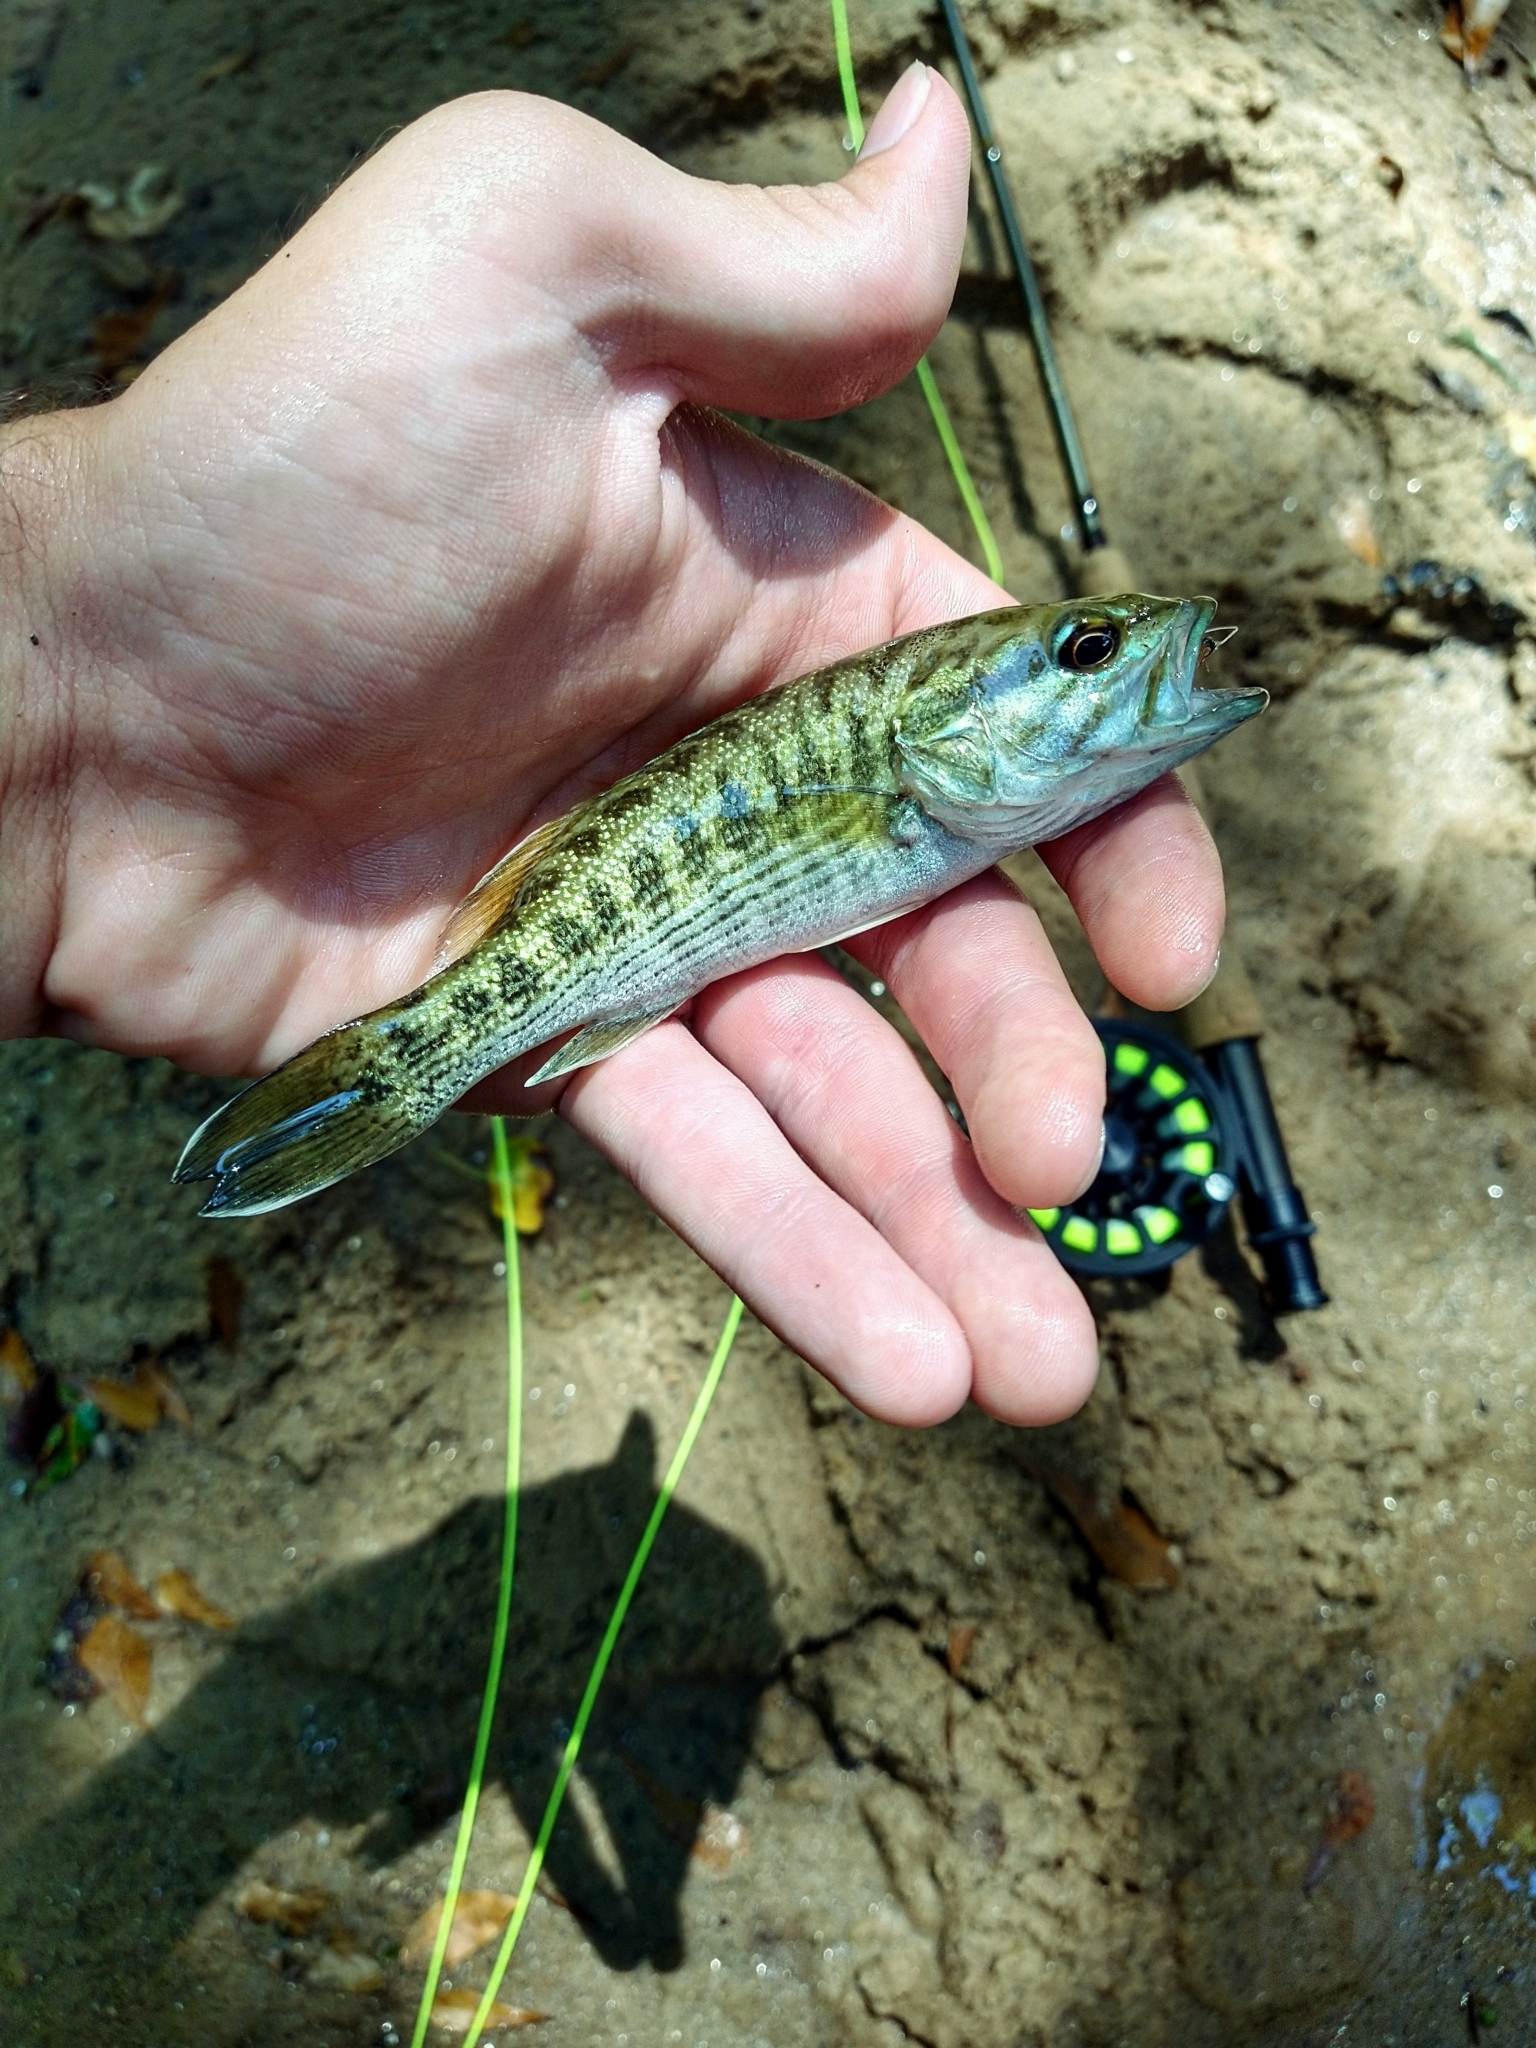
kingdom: Animalia
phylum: Chordata
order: Perciformes
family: Centrarchidae
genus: Micropterus
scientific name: Micropterus tallapoosae
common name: Tallapoosa bass
